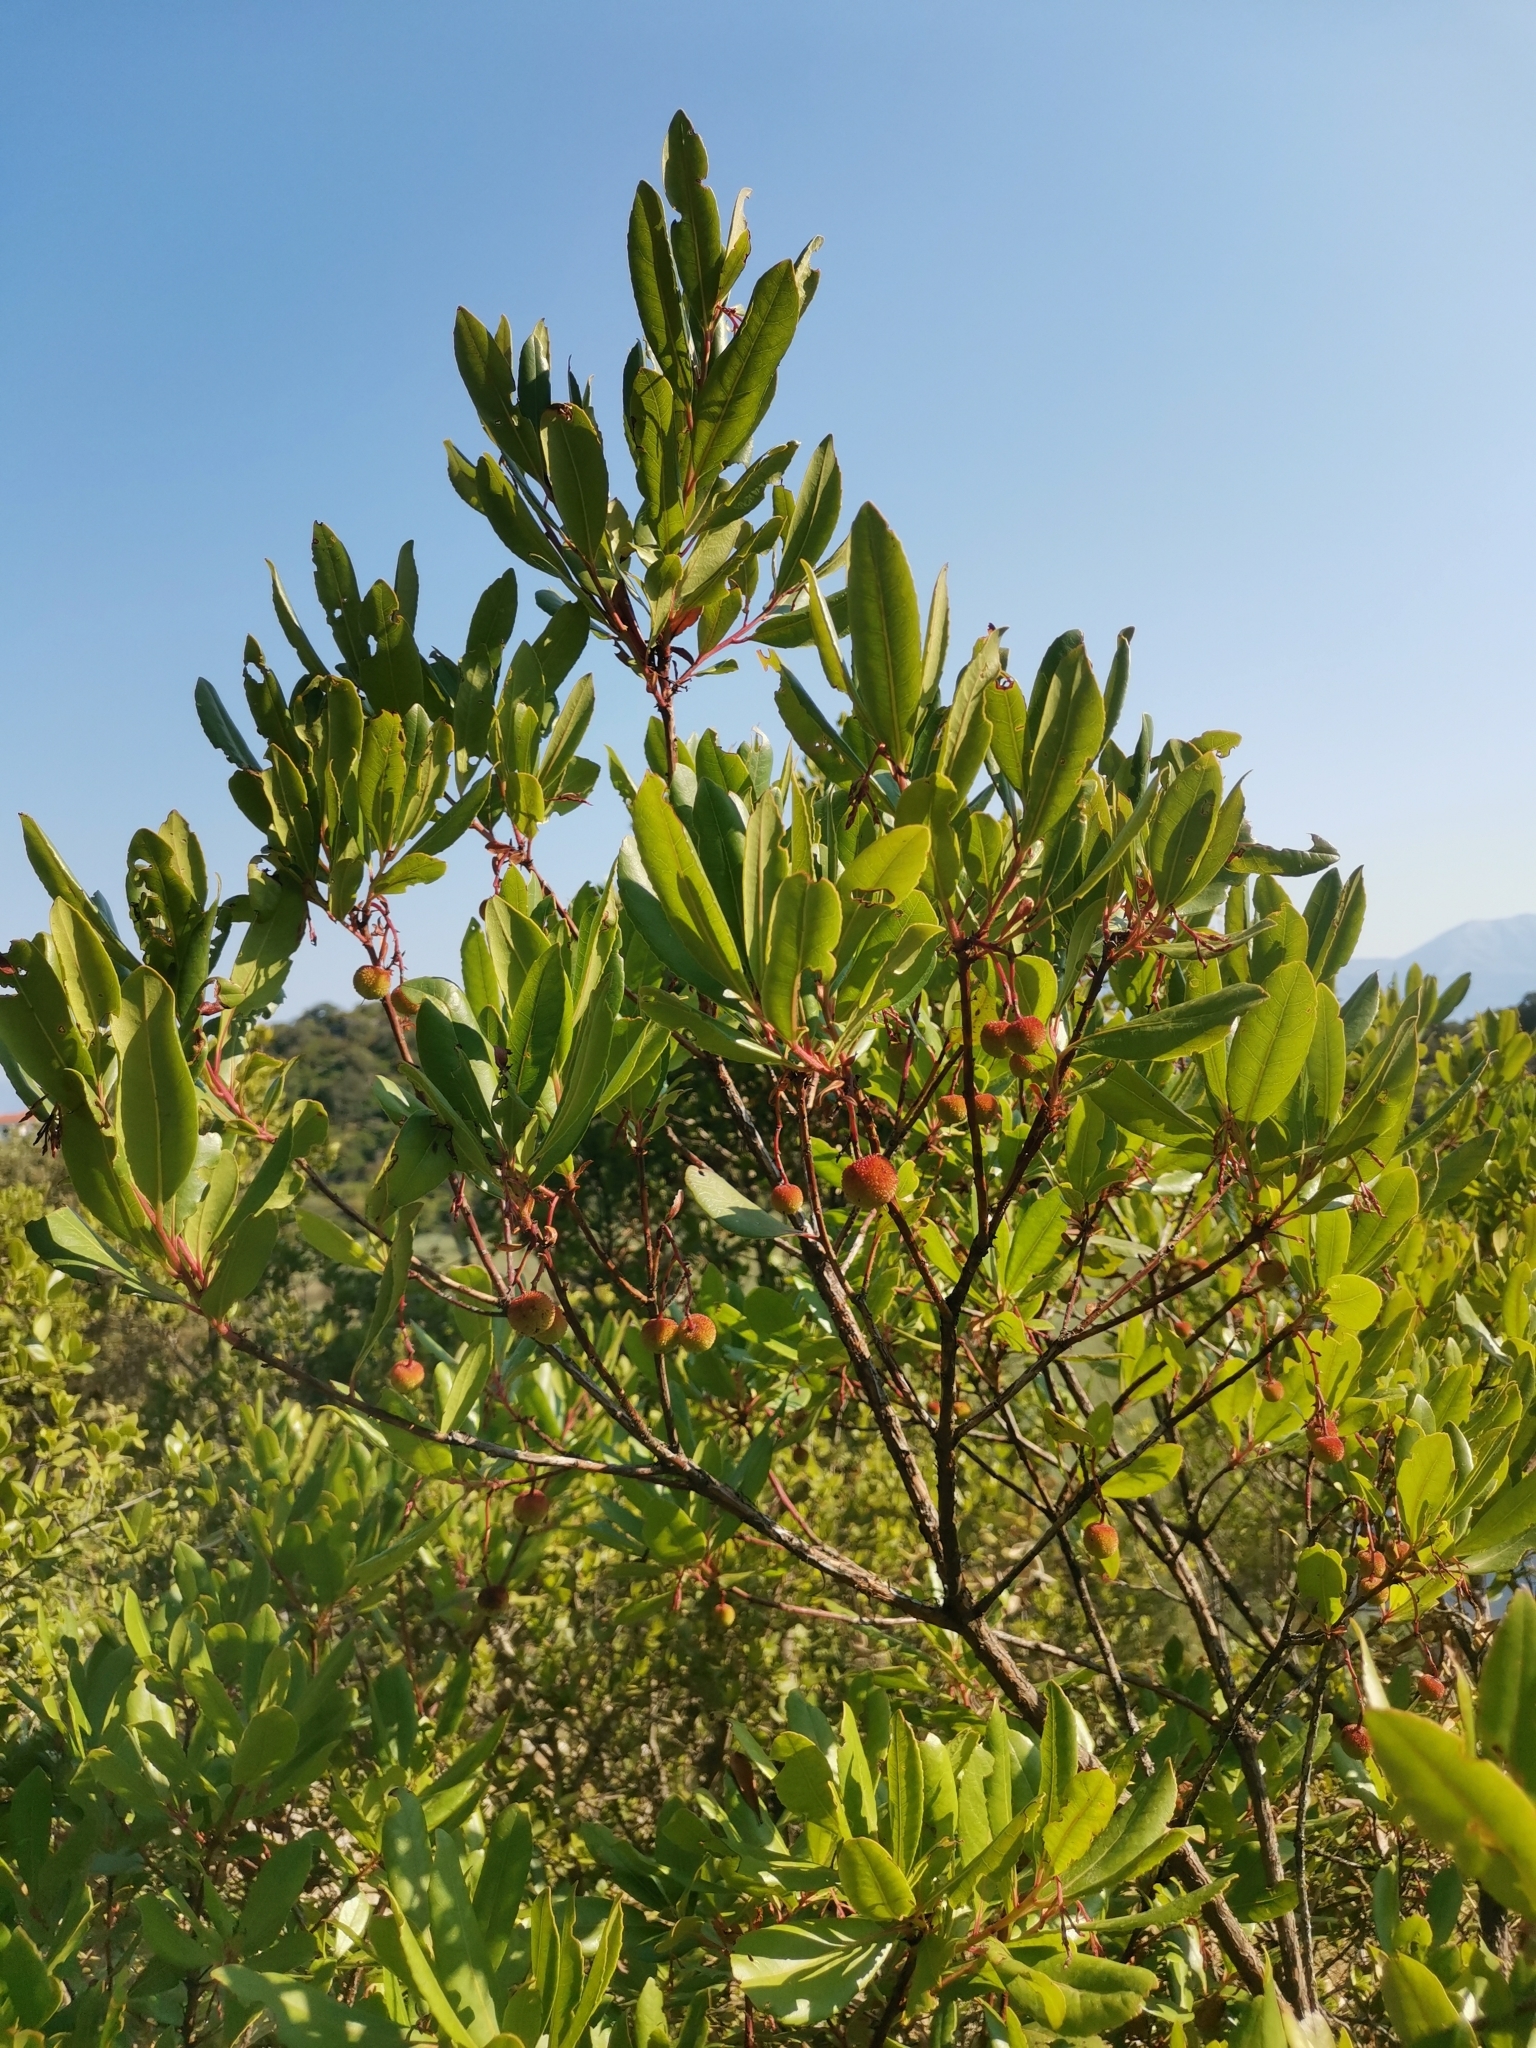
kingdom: Plantae
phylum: Tracheophyta
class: Magnoliopsida
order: Ericales
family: Ericaceae
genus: Arbutus
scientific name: Arbutus unedo
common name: Strawberry-tree
